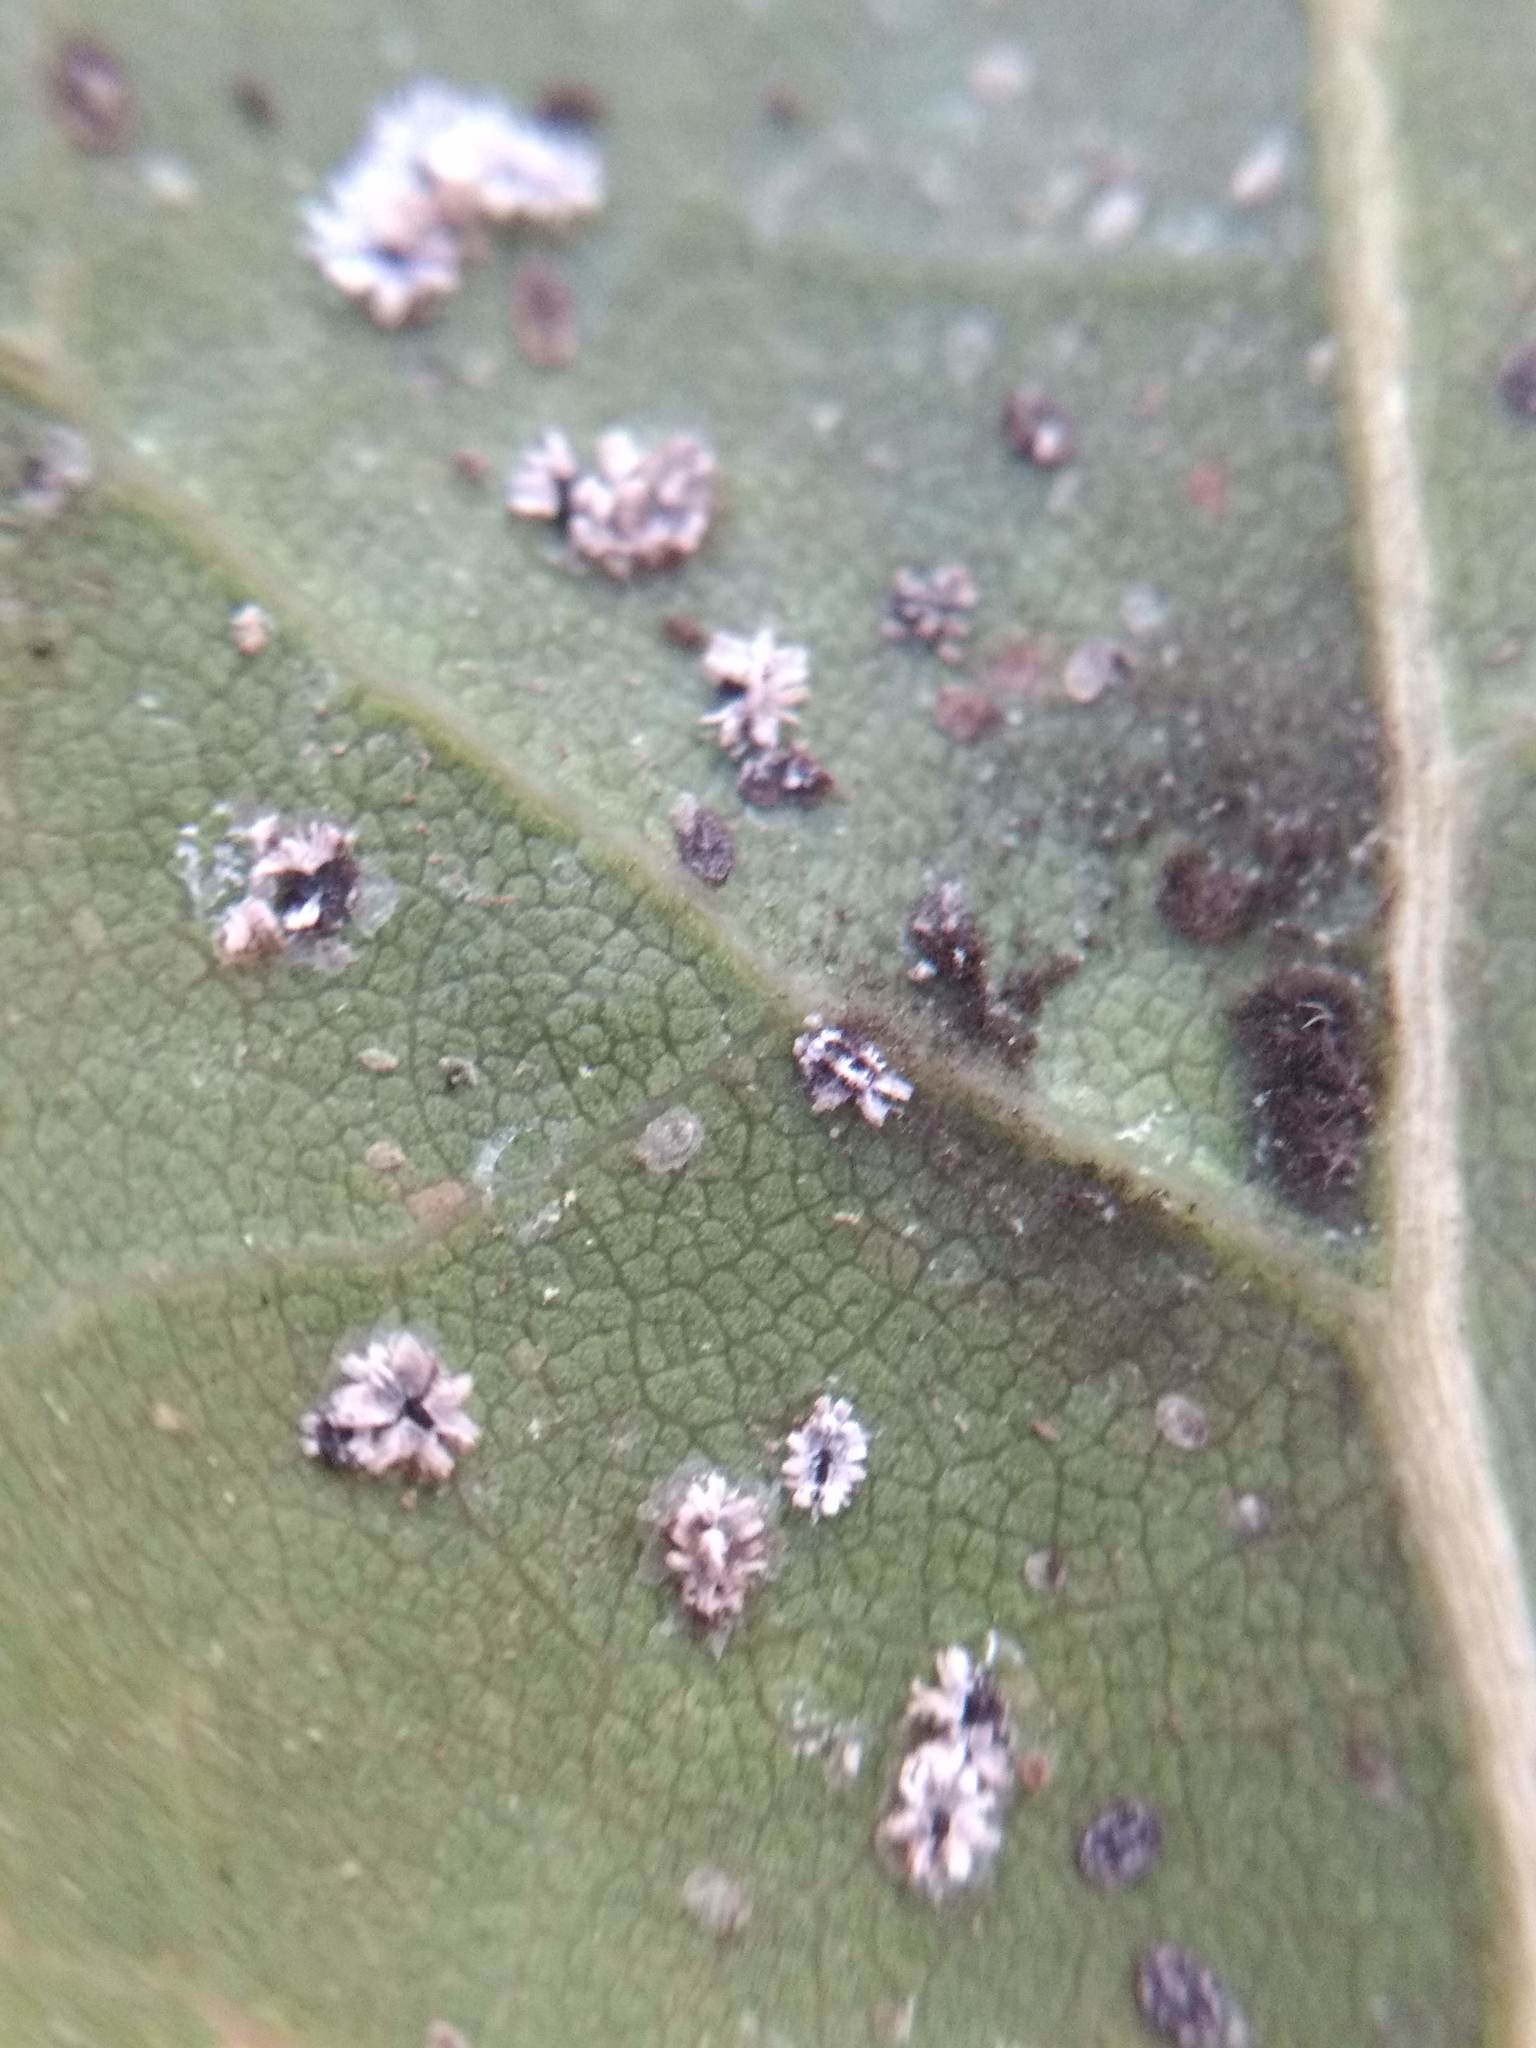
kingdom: Animalia
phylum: Arthropoda
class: Insecta
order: Hemiptera
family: Aleyrodidae
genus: Aleuroplatus
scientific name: Aleuroplatus coronata
